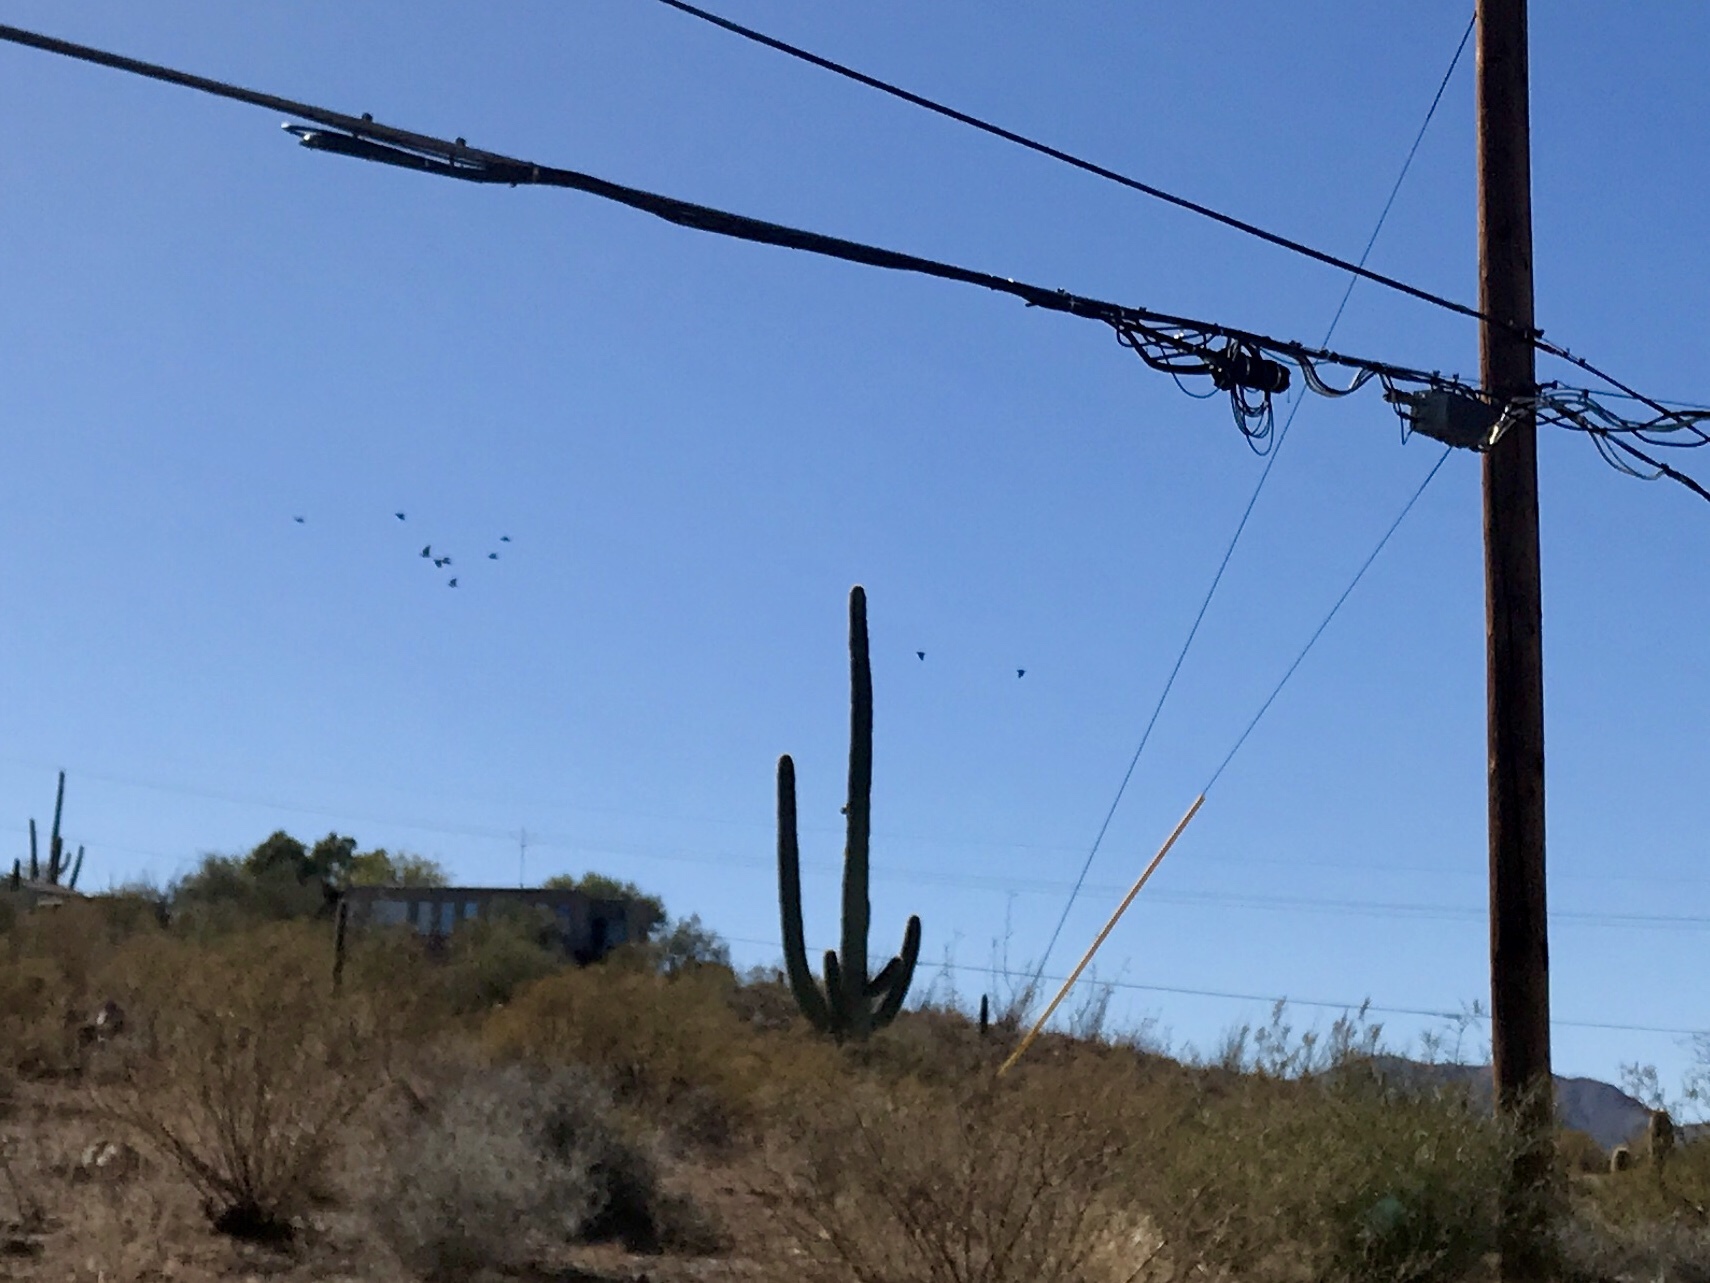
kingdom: Plantae
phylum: Tracheophyta
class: Magnoliopsida
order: Caryophyllales
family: Cactaceae
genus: Carnegiea
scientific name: Carnegiea gigantea
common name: Saguaro
